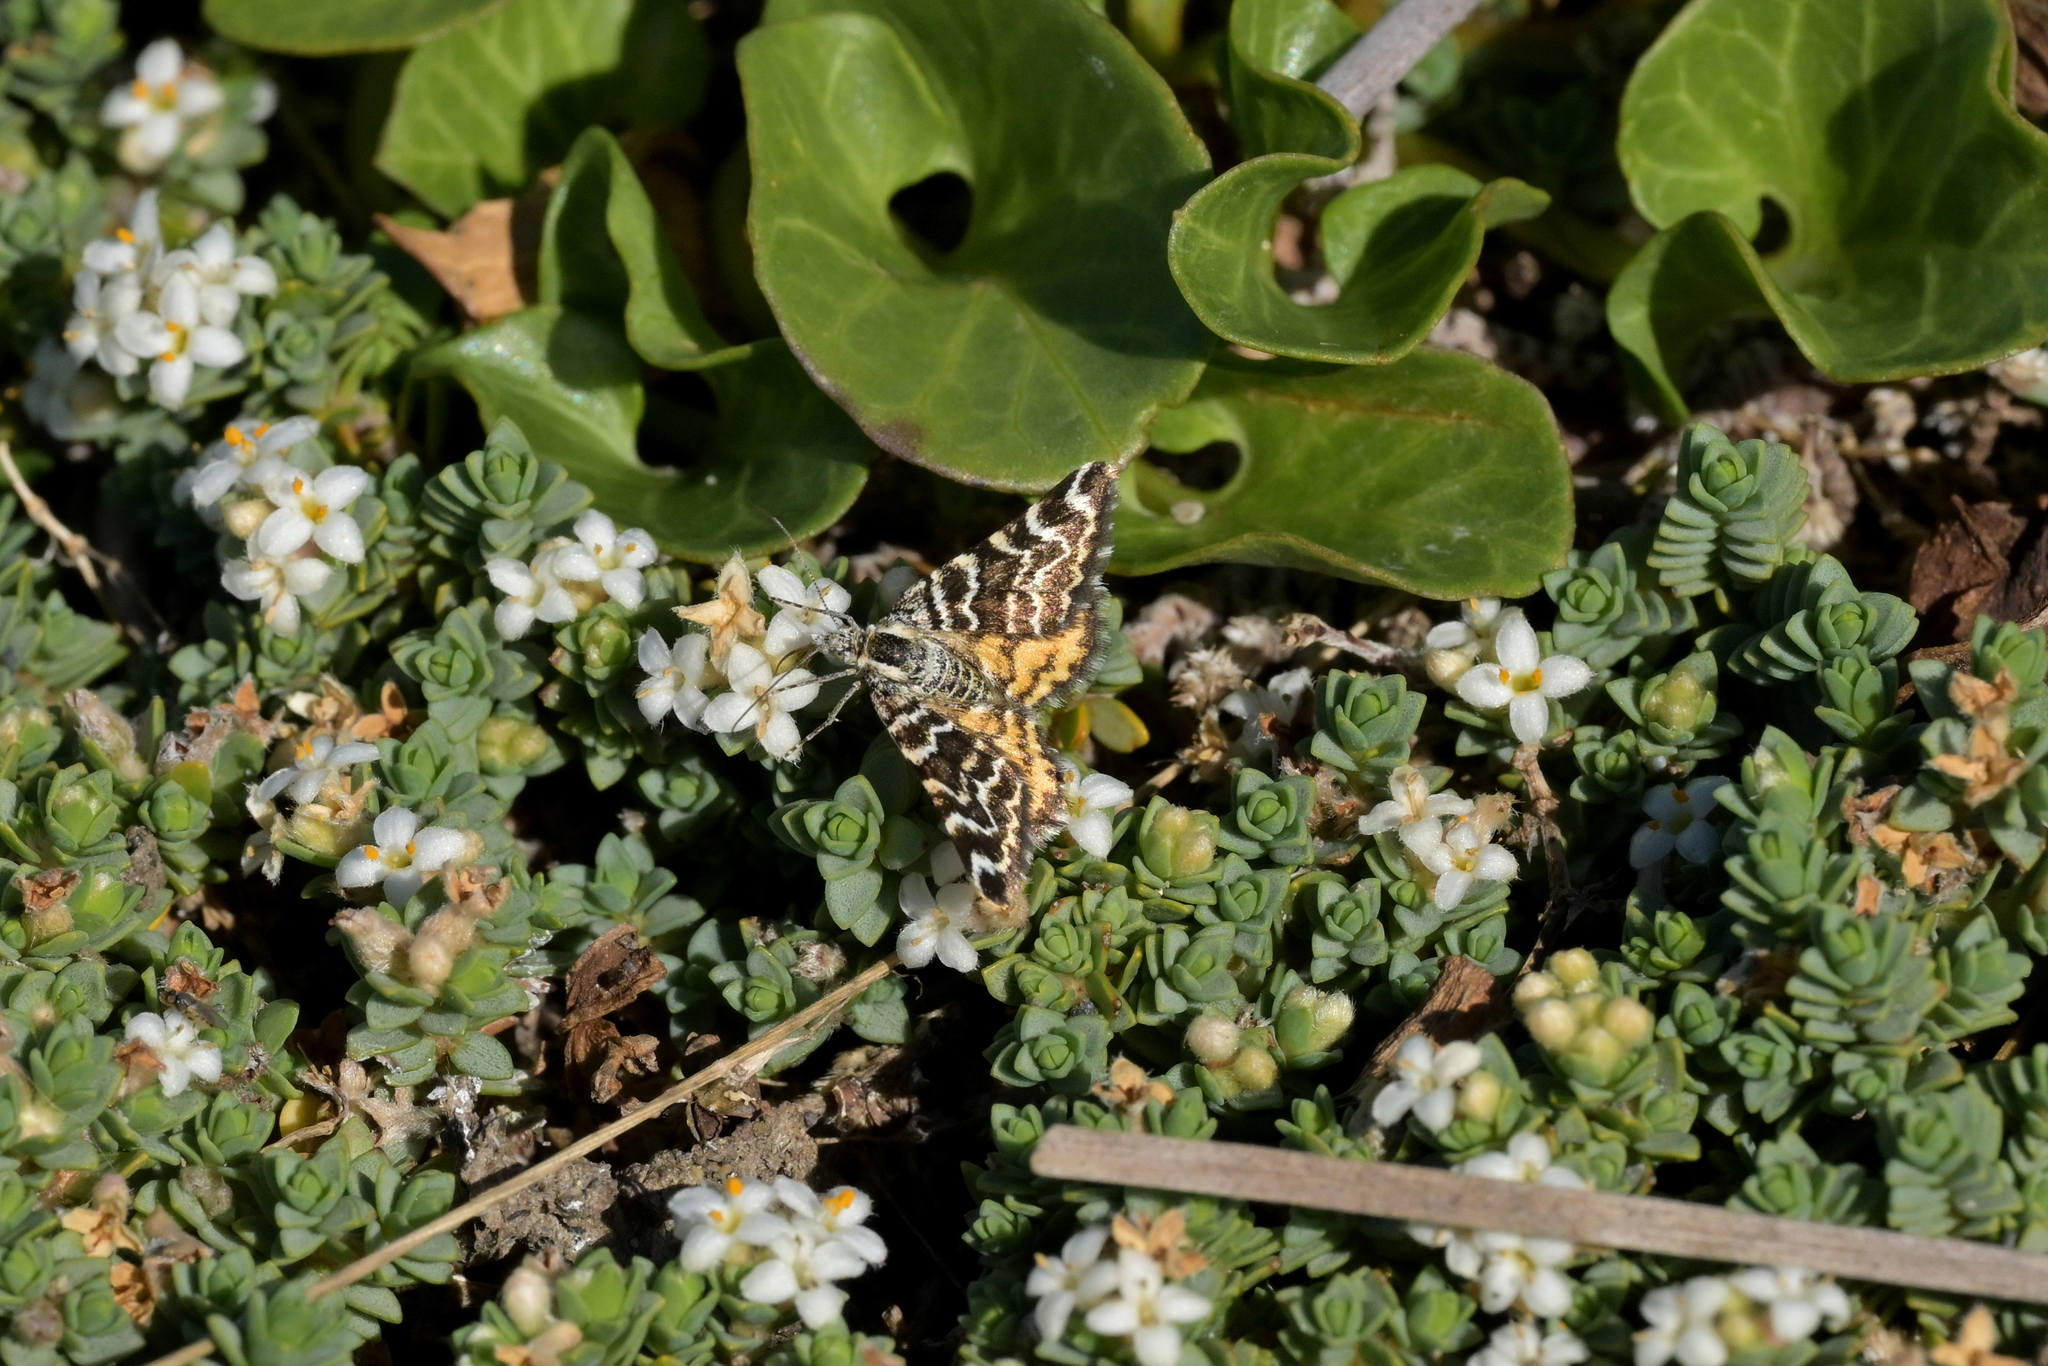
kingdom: Animalia
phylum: Arthropoda
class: Insecta
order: Lepidoptera
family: Geometridae
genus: Notoreas
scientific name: Notoreas perornata
